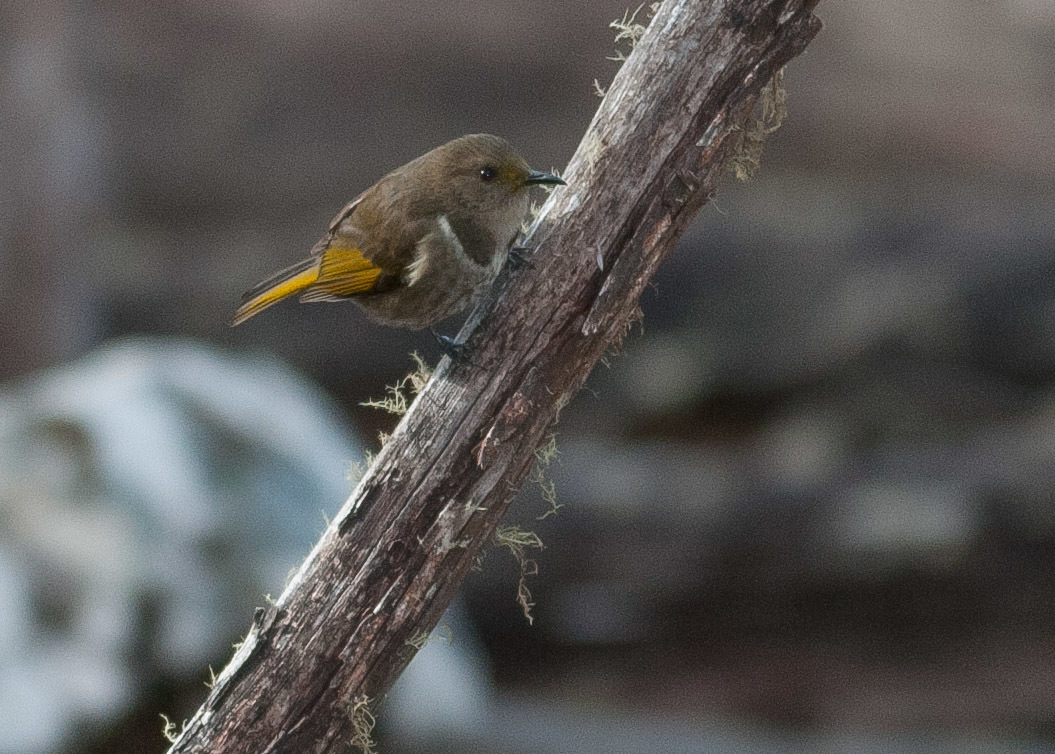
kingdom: Animalia
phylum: Chordata
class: Aves
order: Passeriformes
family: Meliphagidae
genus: Phylidonyris
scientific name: Phylidonyris pyrrhopterus
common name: Crescent honeyeater
